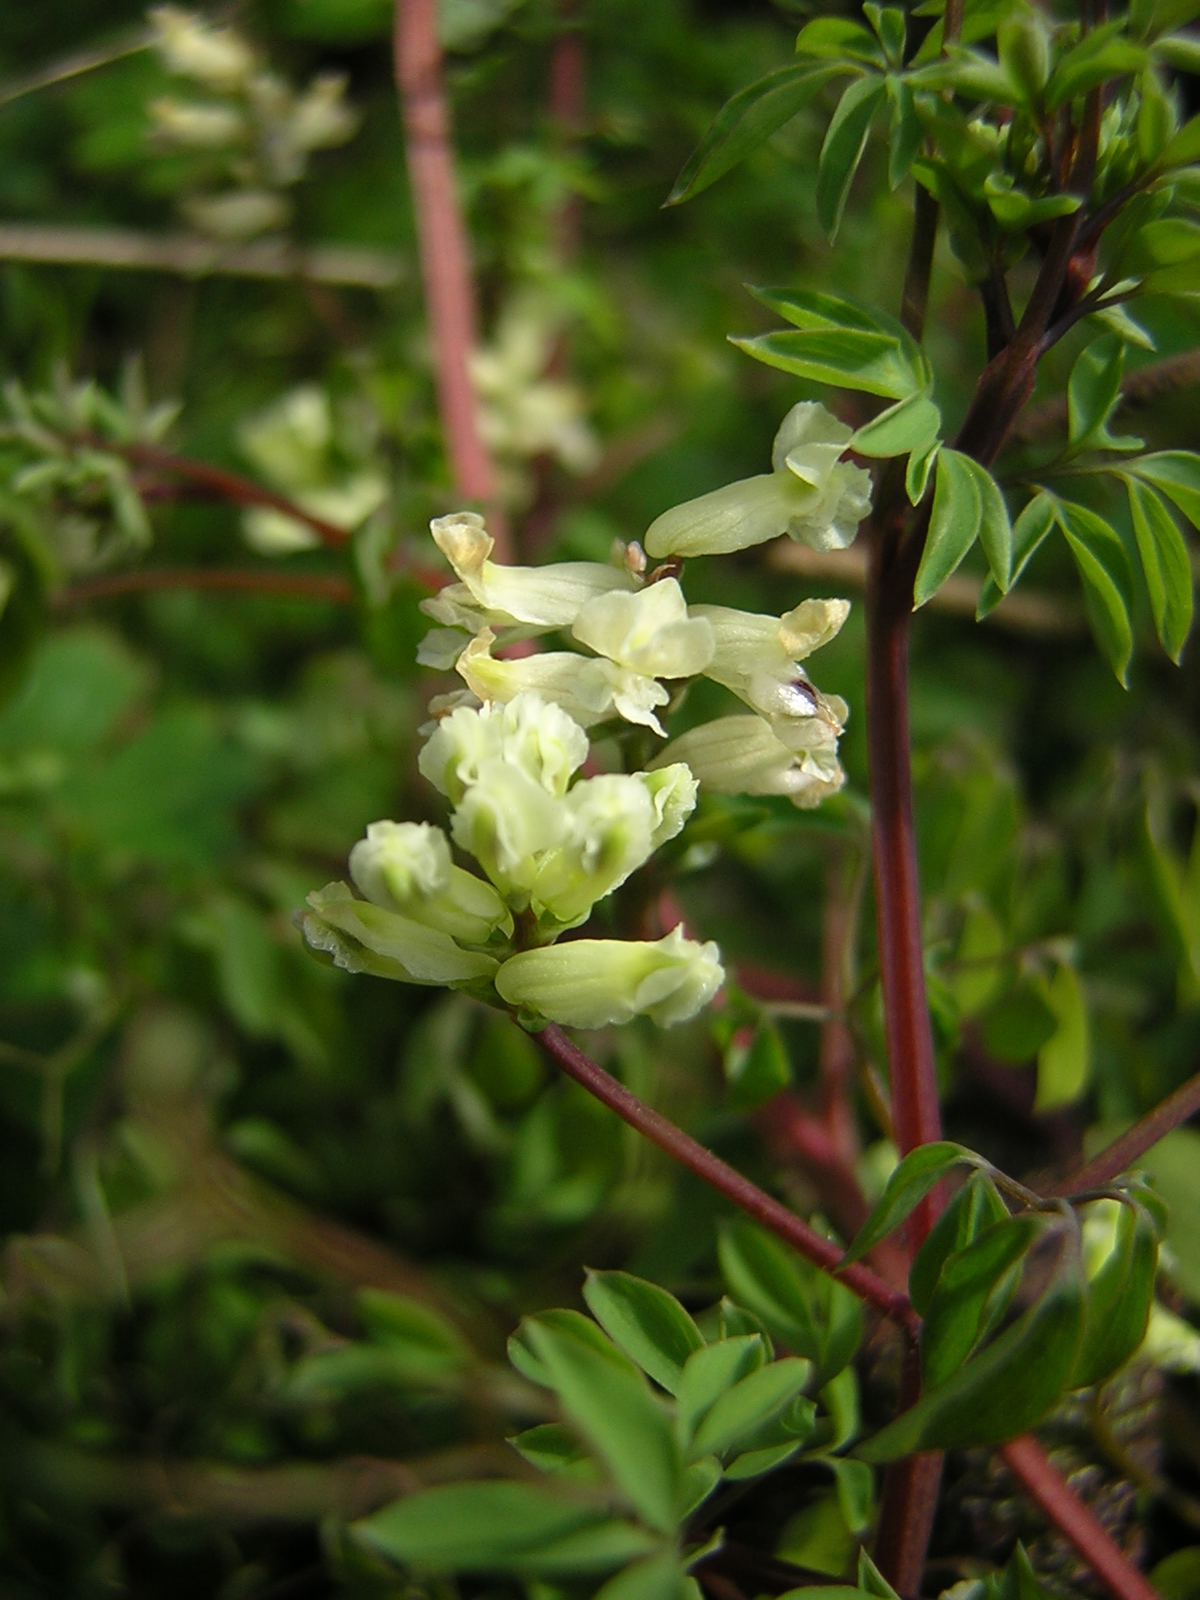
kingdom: Plantae
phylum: Tracheophyta
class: Magnoliopsida
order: Ranunculales
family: Papaveraceae
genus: Ceratocapnos
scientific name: Ceratocapnos claviculata
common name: Climbing corydalis
